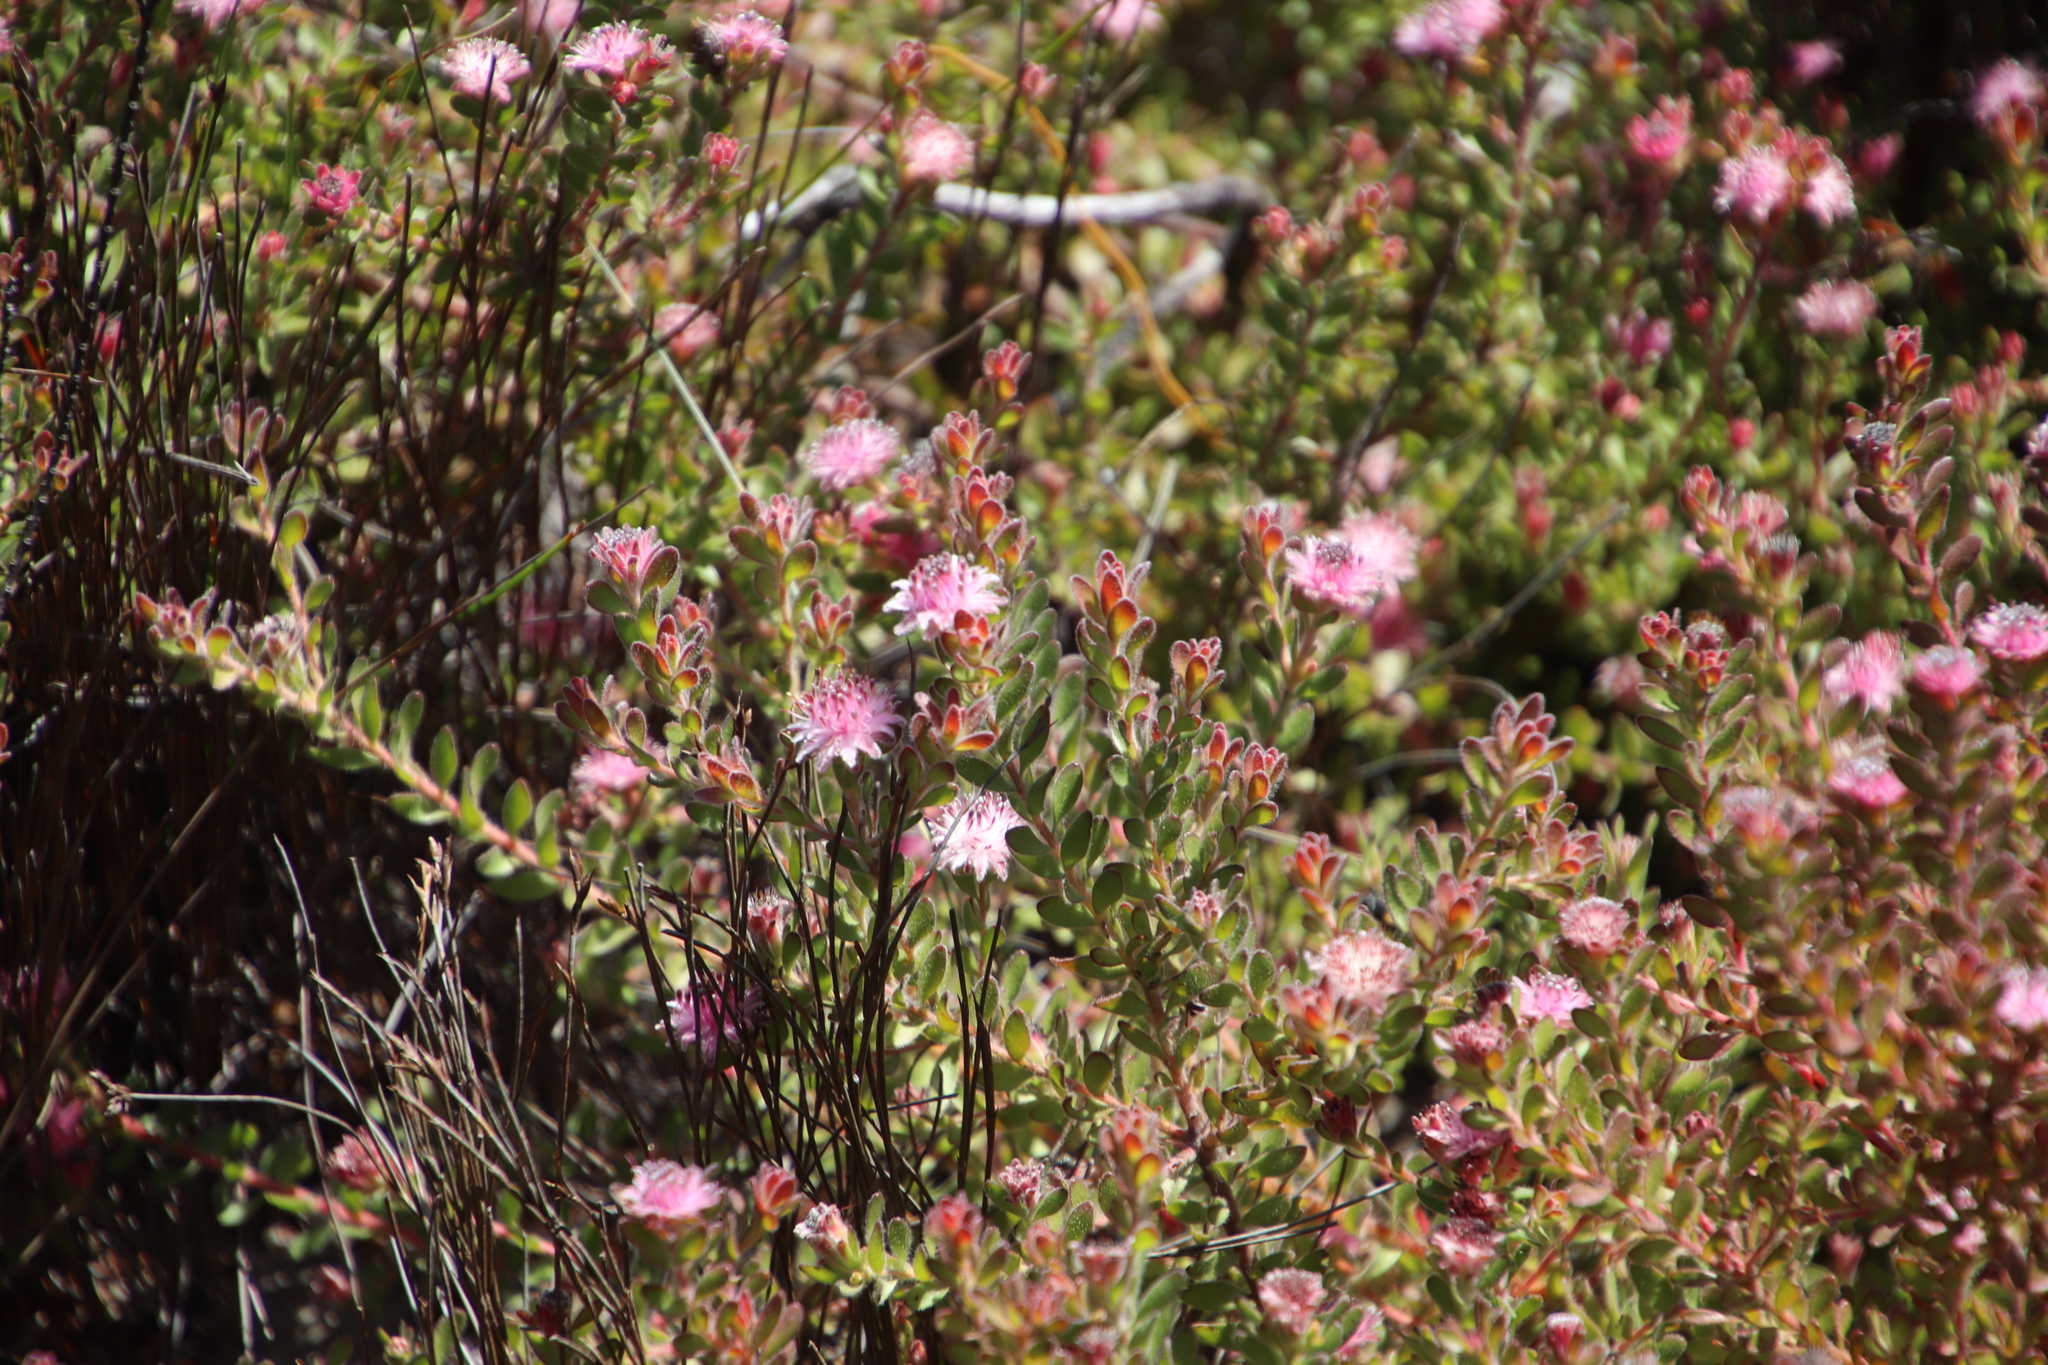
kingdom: Plantae
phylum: Tracheophyta
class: Magnoliopsida
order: Proteales
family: Proteaceae
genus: Diastella
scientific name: Diastella divaricata
